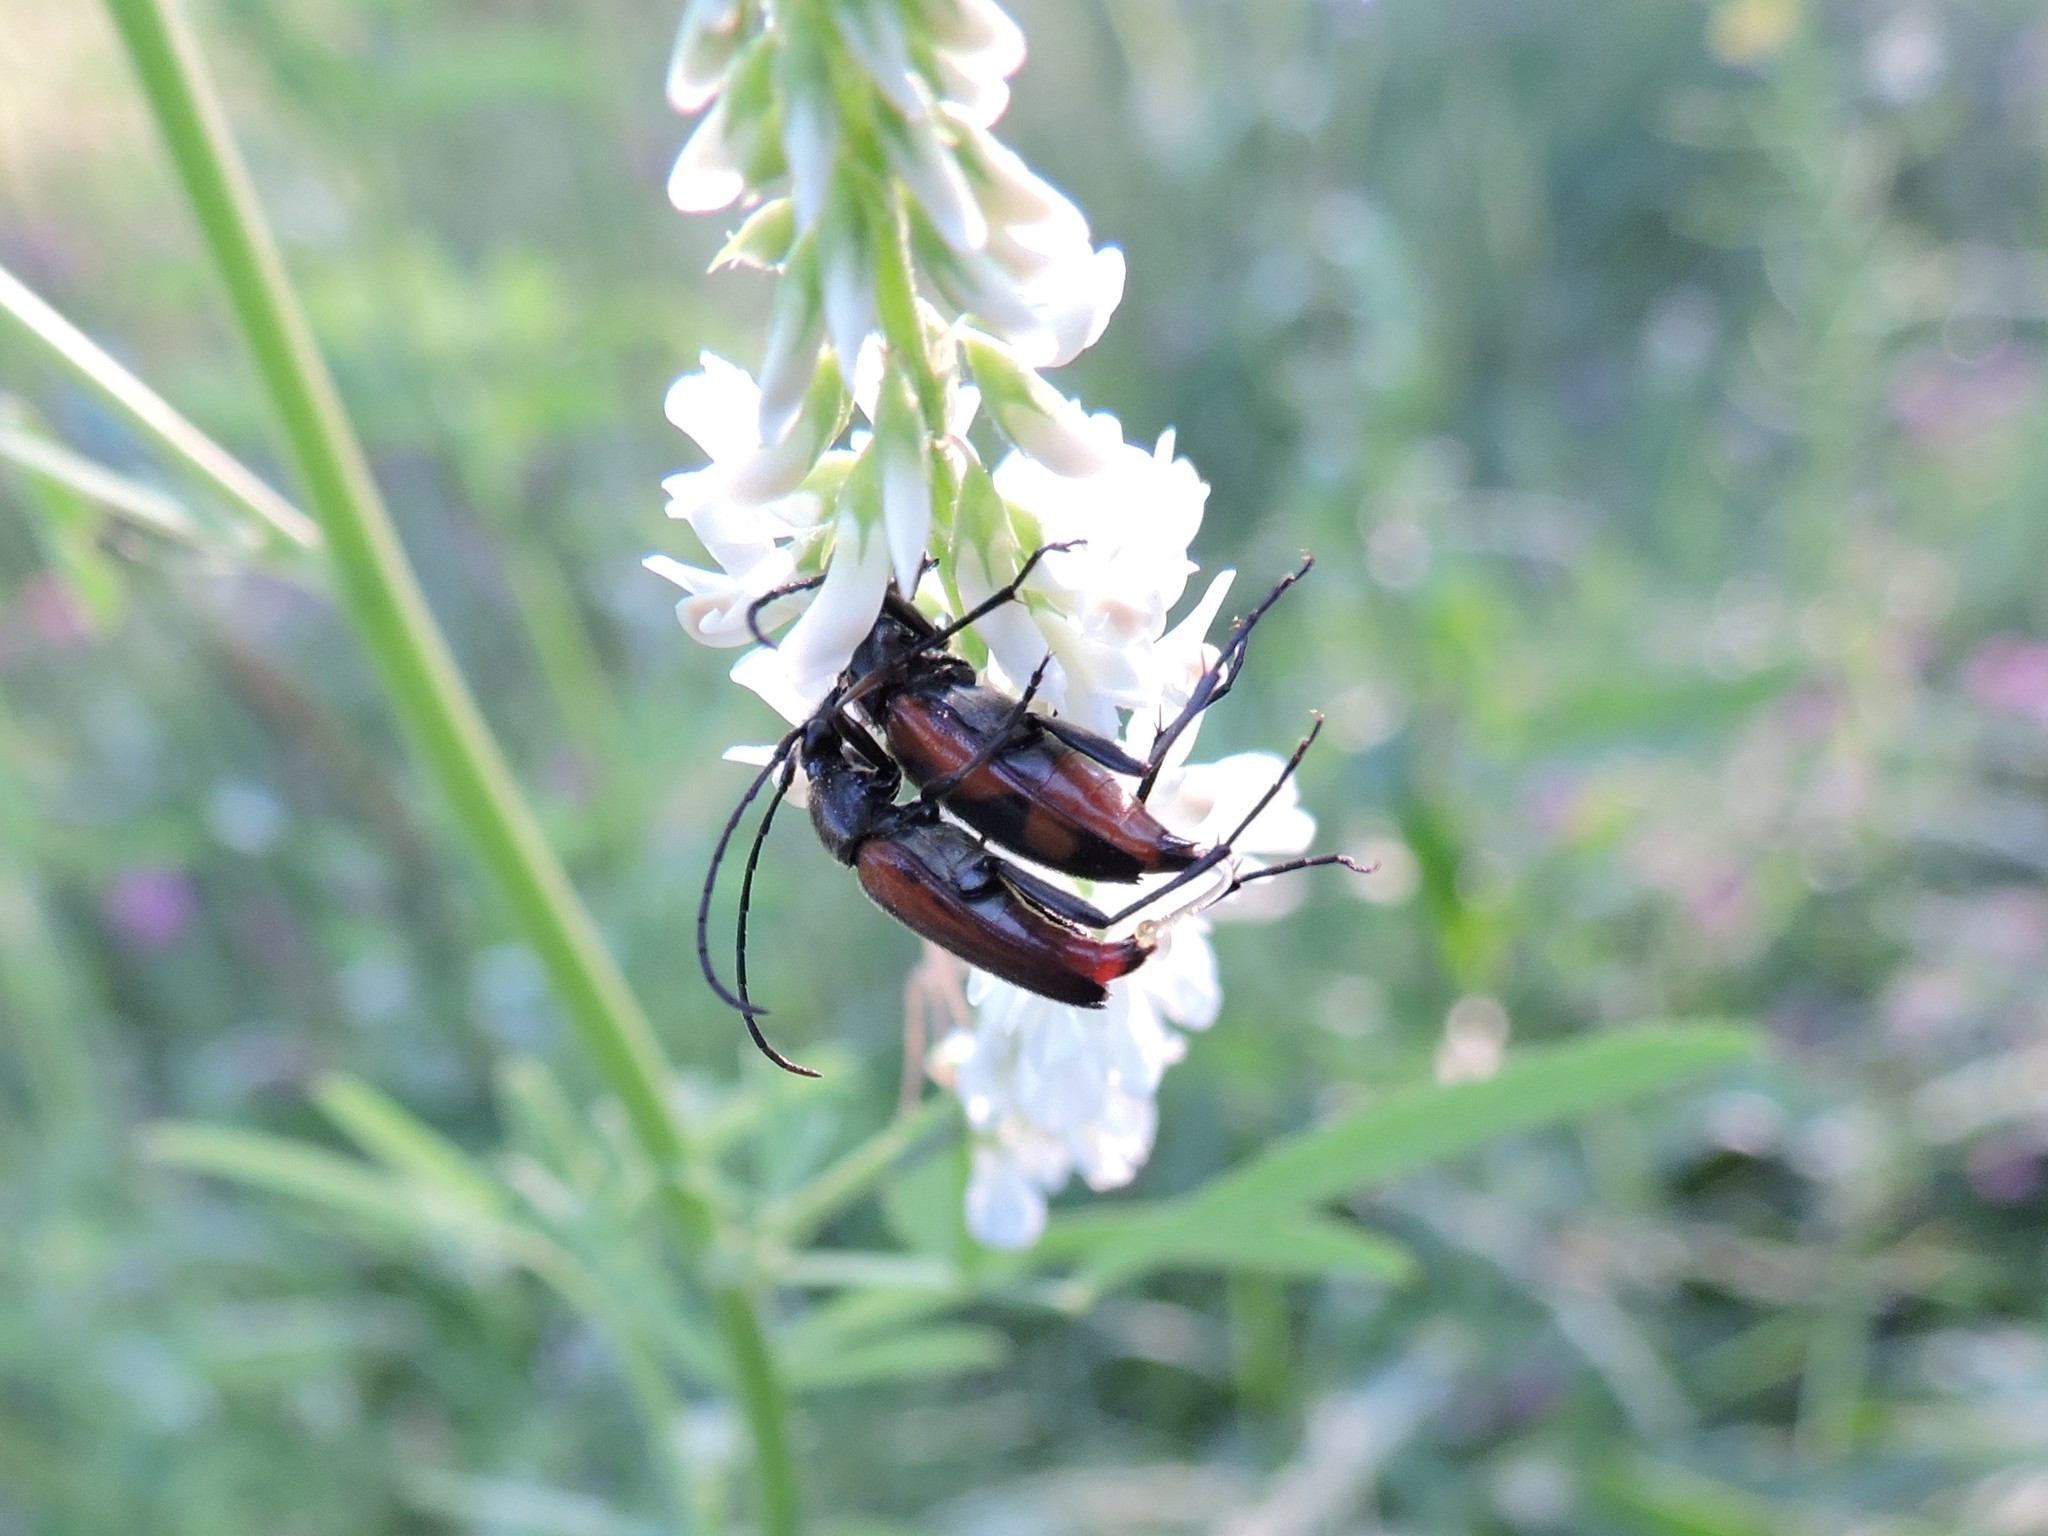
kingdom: Animalia
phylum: Arthropoda
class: Insecta
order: Coleoptera
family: Cerambycidae
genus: Stenurella
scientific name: Stenurella bifasciata
